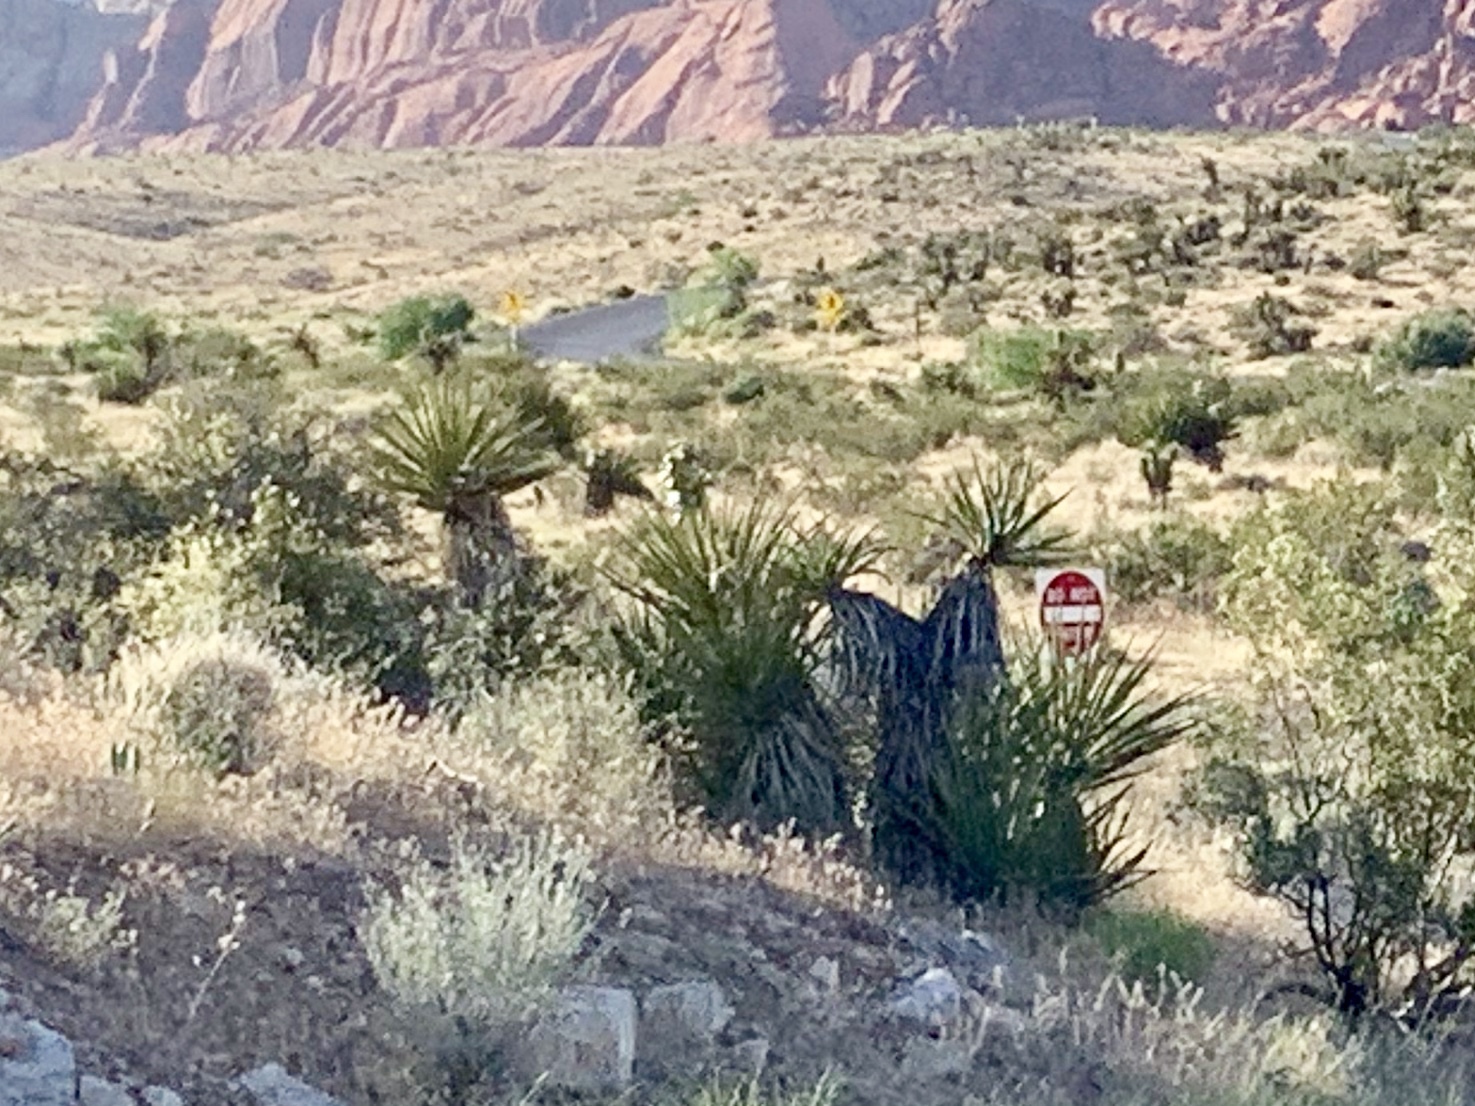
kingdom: Plantae
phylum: Tracheophyta
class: Liliopsida
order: Asparagales
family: Asparagaceae
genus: Yucca
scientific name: Yucca schidigera
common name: Mojave yucca
